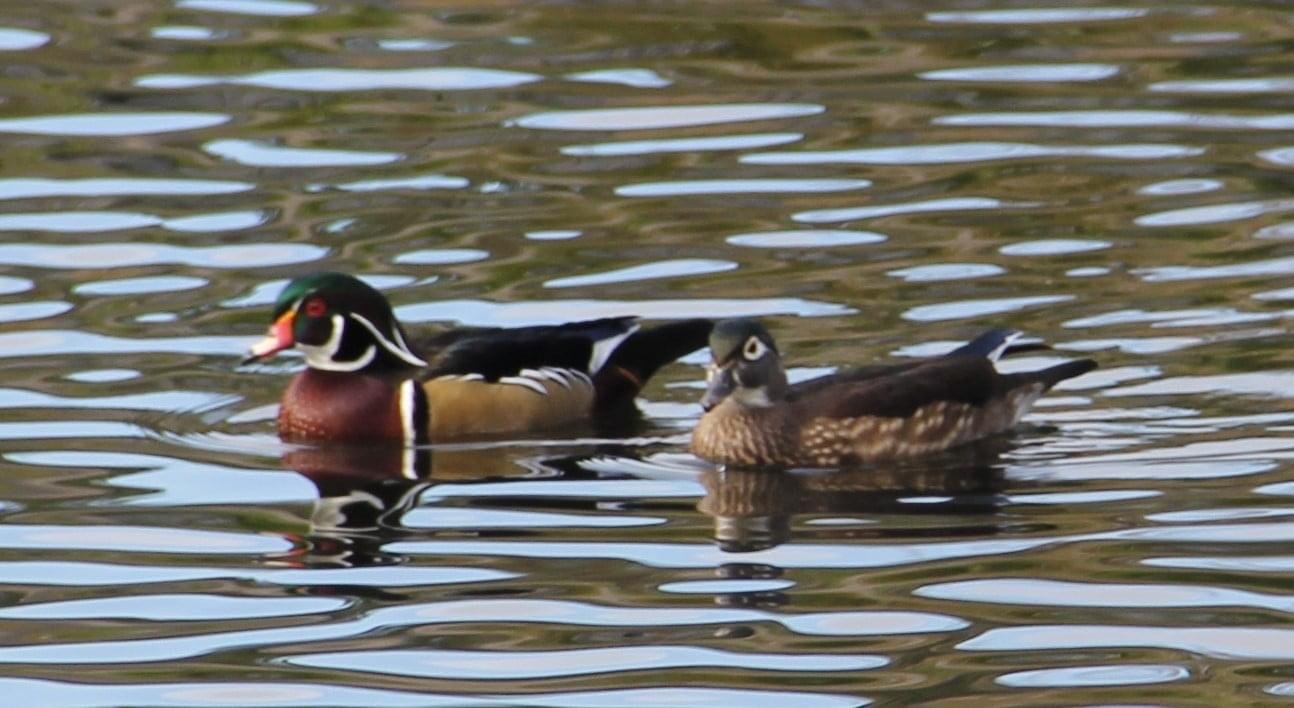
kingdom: Animalia
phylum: Chordata
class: Aves
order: Anseriformes
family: Anatidae
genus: Aix
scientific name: Aix sponsa
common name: Wood duck
